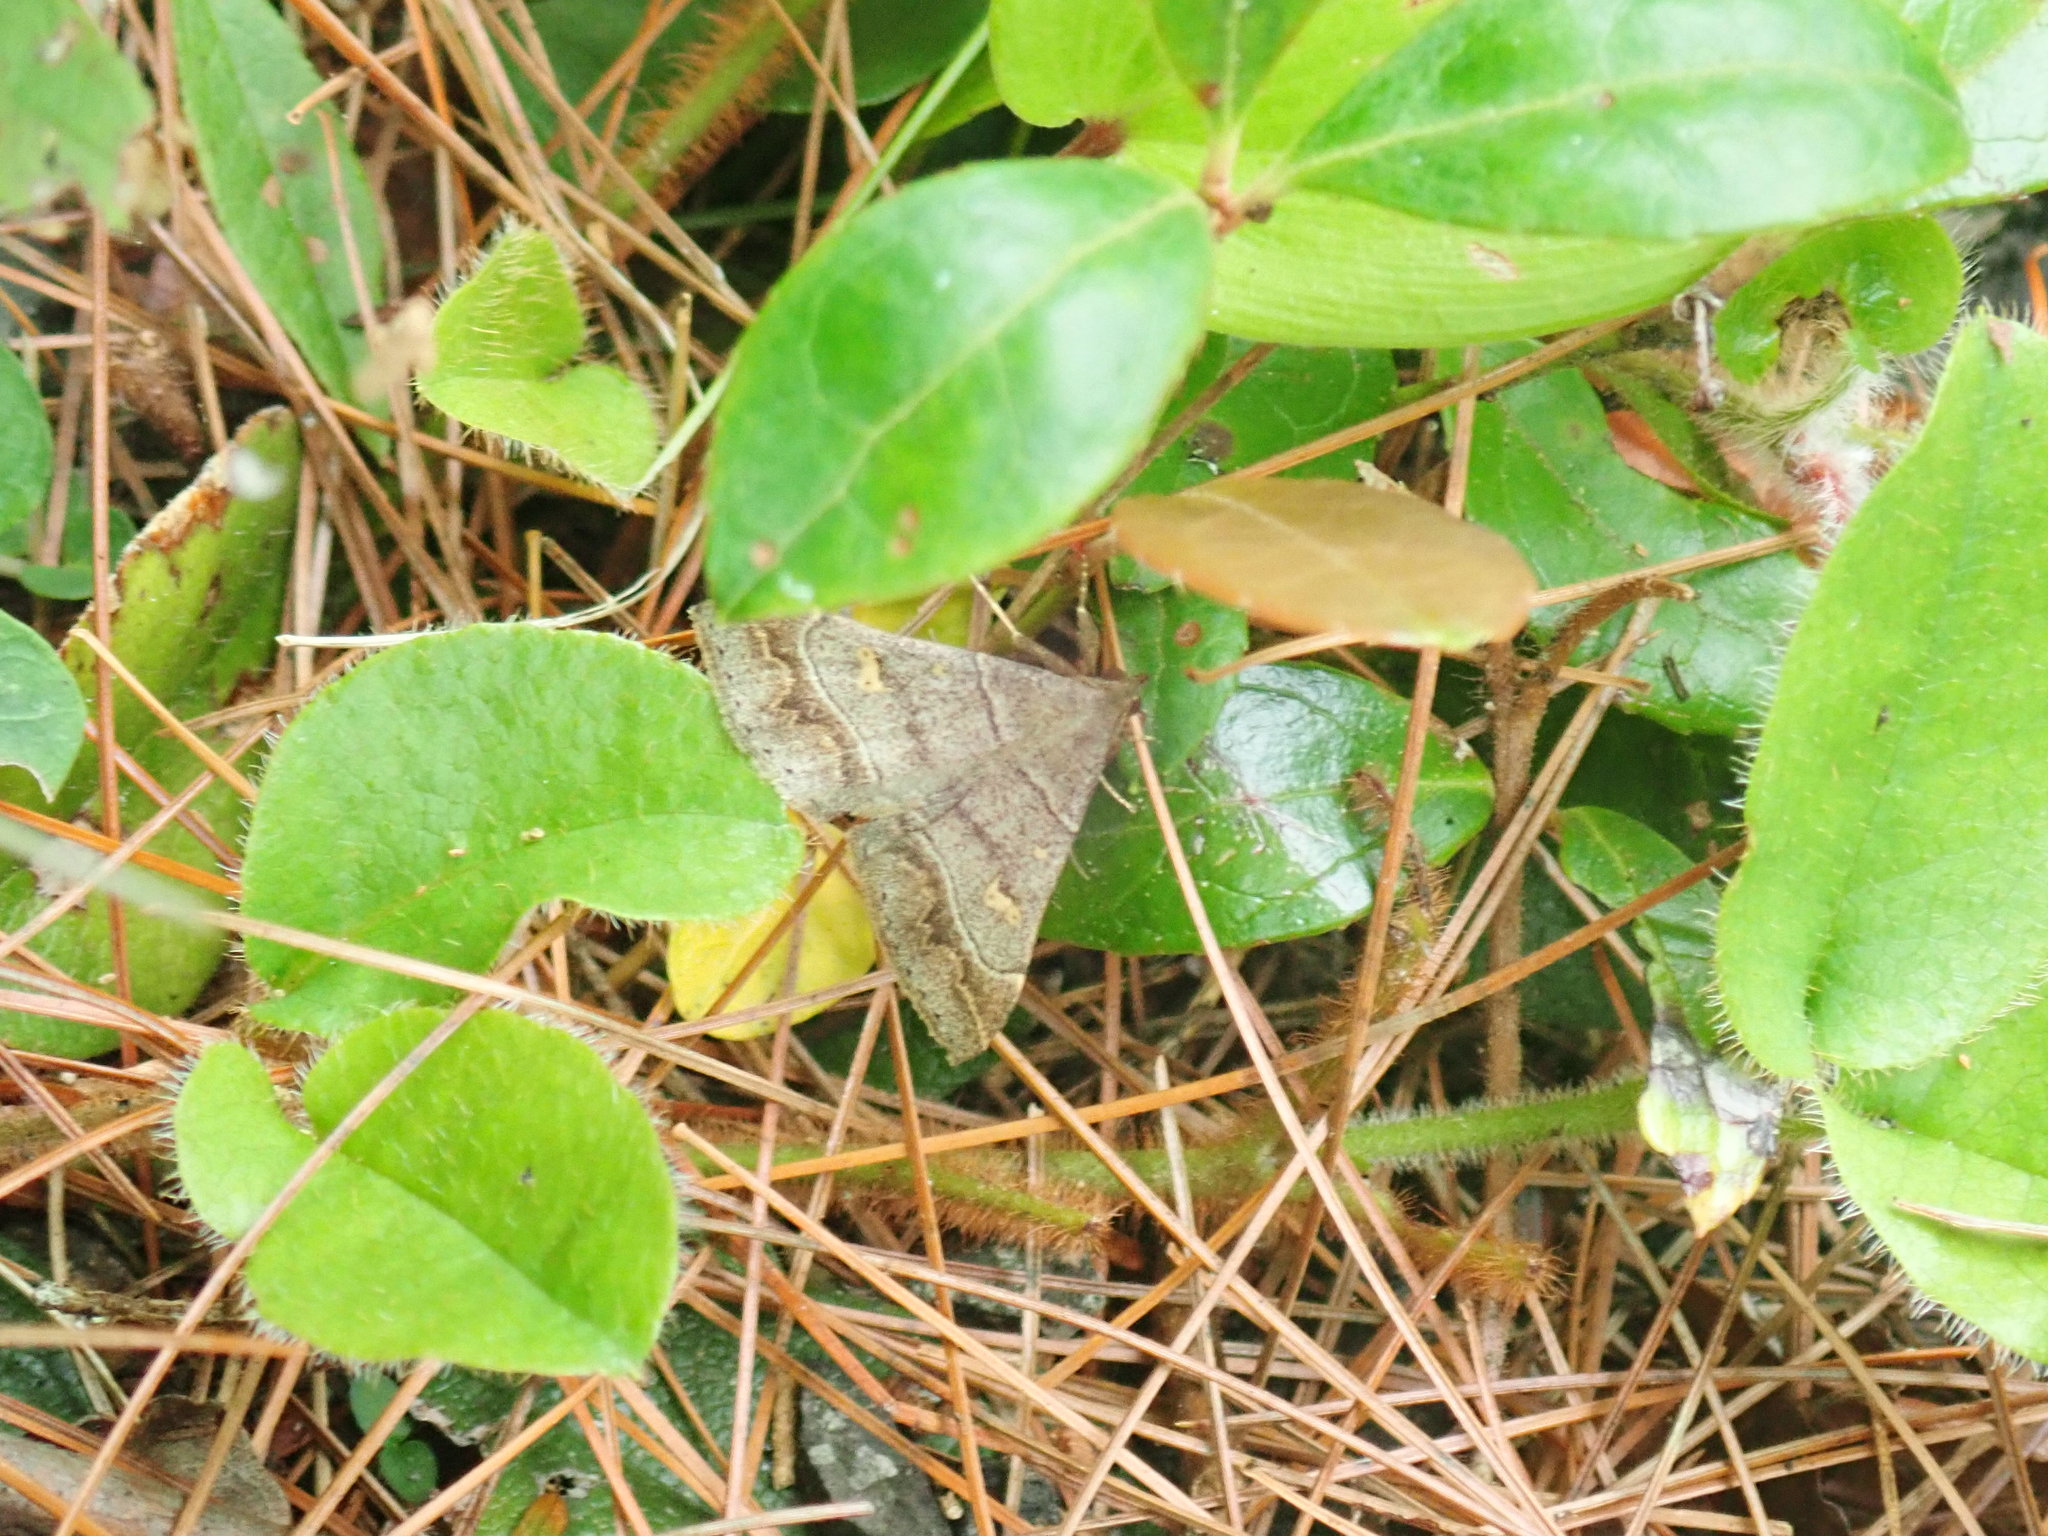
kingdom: Animalia
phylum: Arthropoda
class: Insecta
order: Lepidoptera
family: Erebidae
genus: Renia
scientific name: Renia flavipunctalis
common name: Yellow-spotted renia moth
